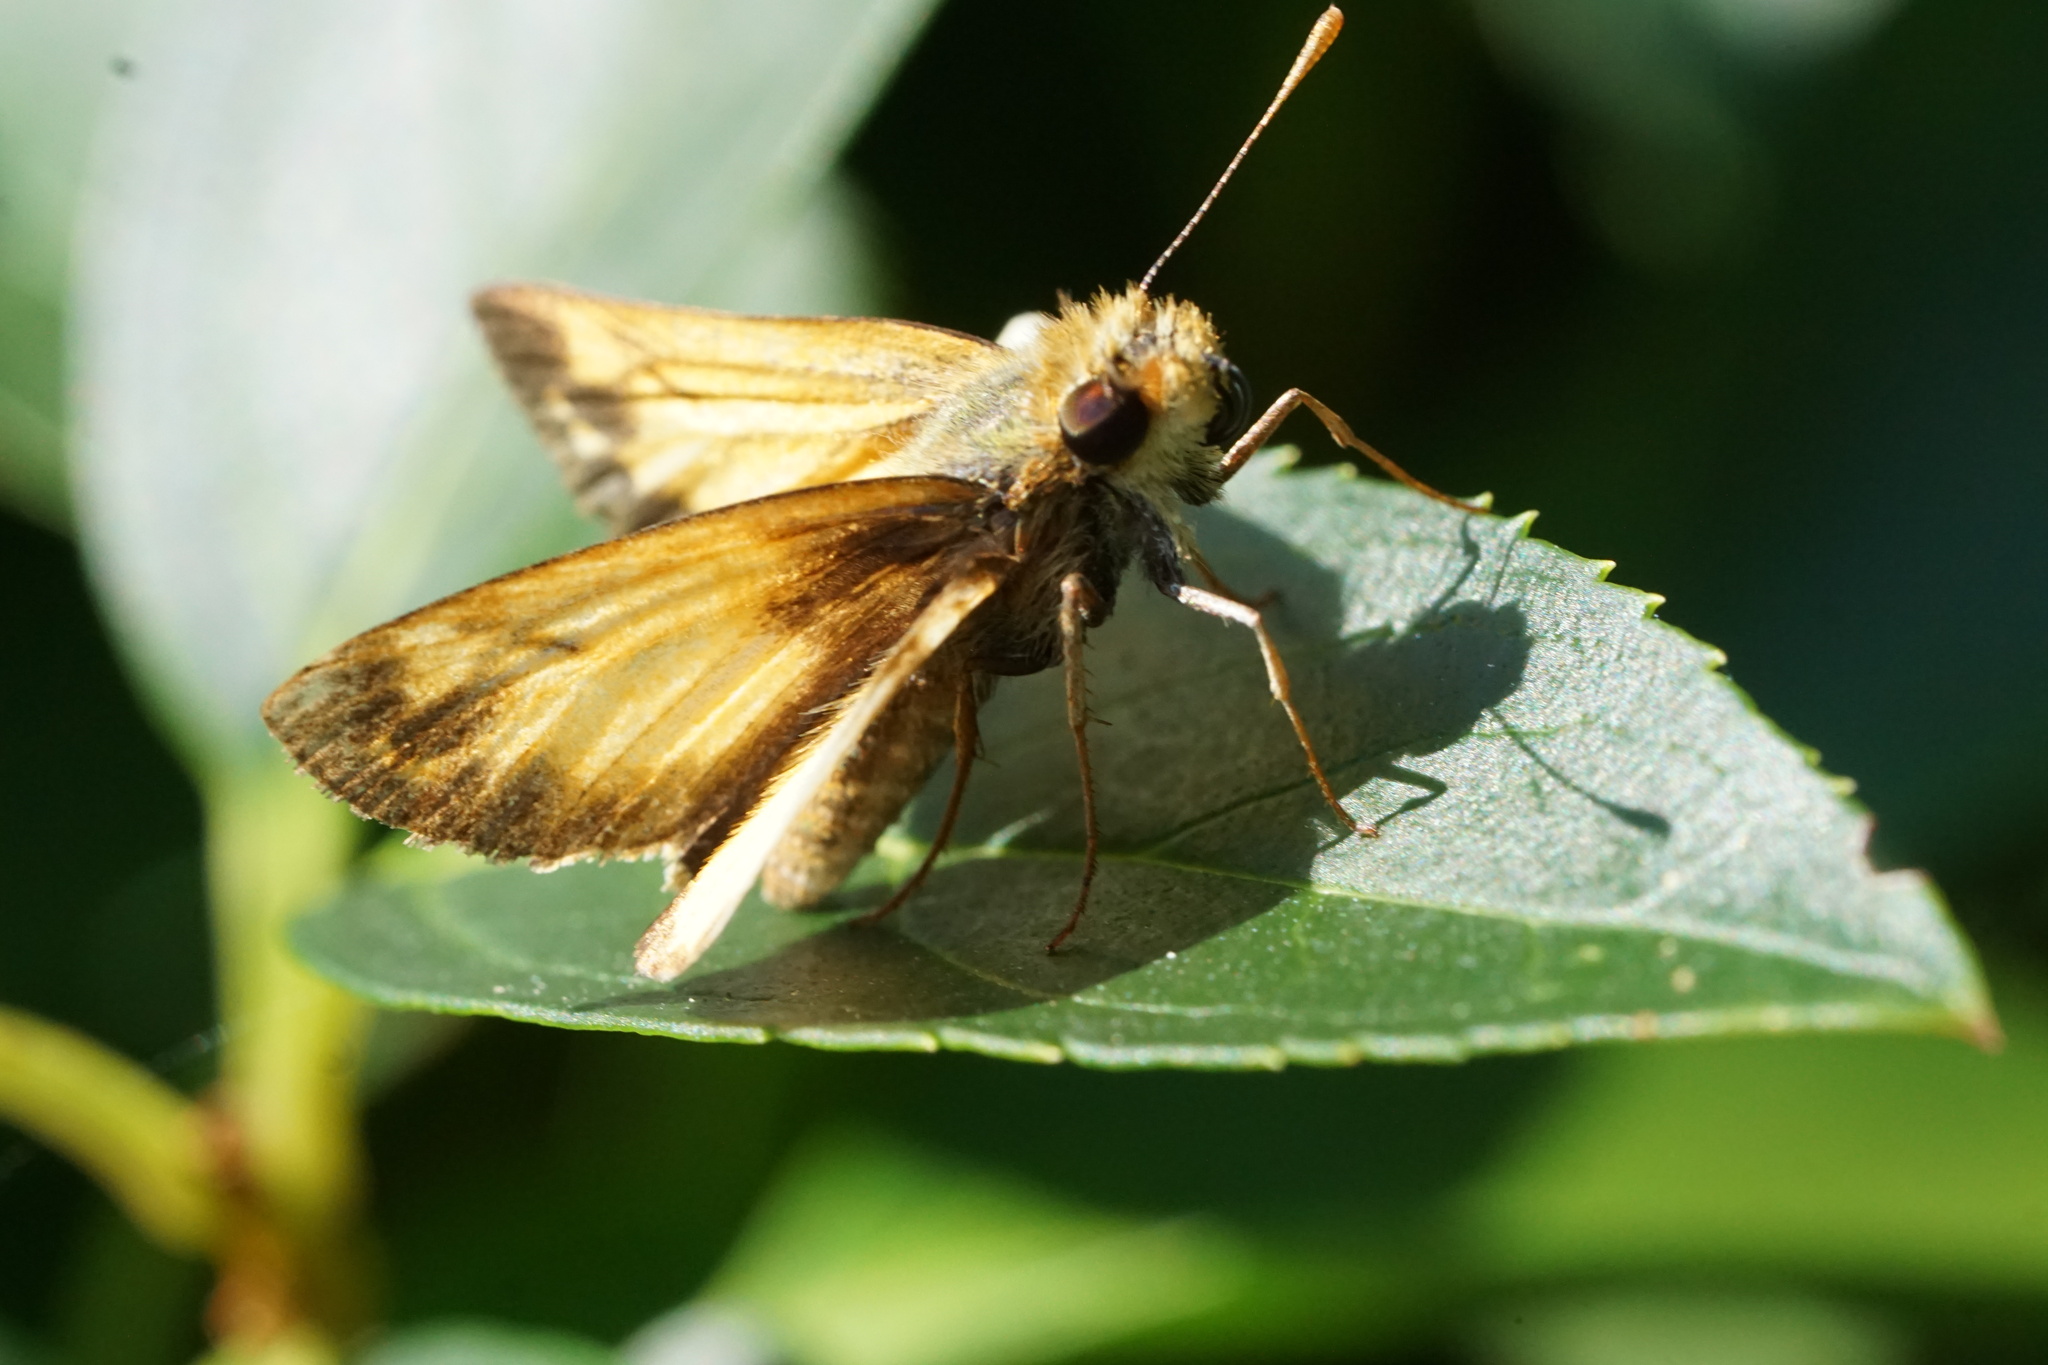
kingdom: Animalia
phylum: Arthropoda
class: Insecta
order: Lepidoptera
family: Hesperiidae
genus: Lon
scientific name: Lon zabulon
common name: Zabulon skipper
